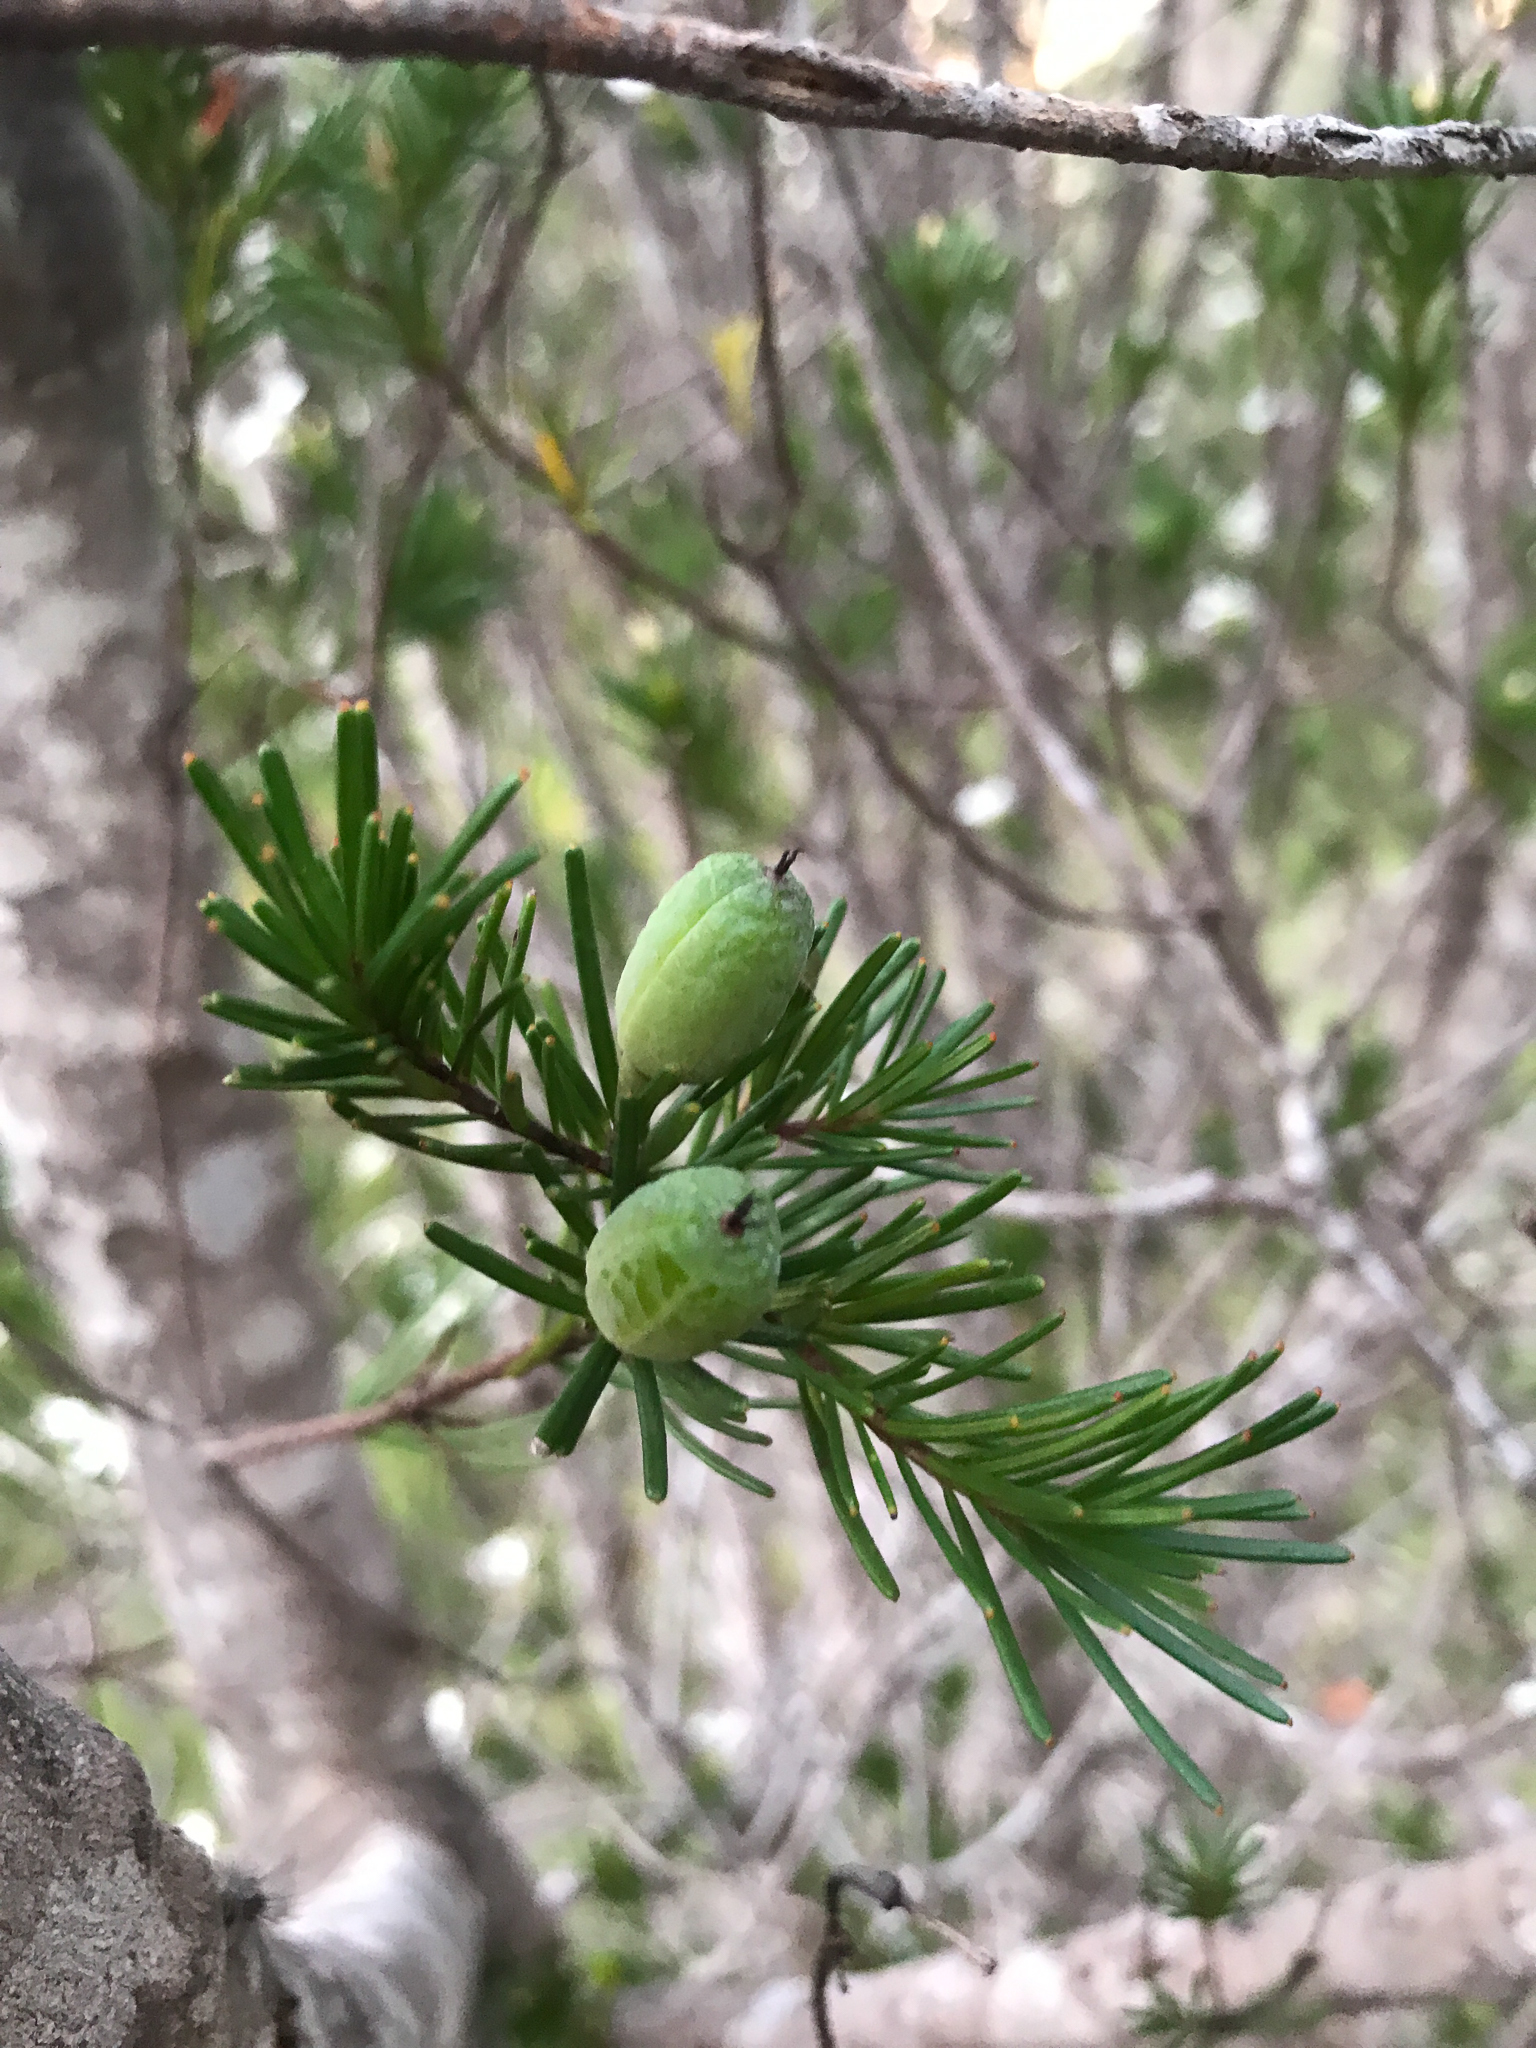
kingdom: Plantae
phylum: Tracheophyta
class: Magnoliopsida
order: Malpighiales
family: Euphorbiaceae
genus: Ricinocarpos
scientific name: Ricinocarpos glaucus
